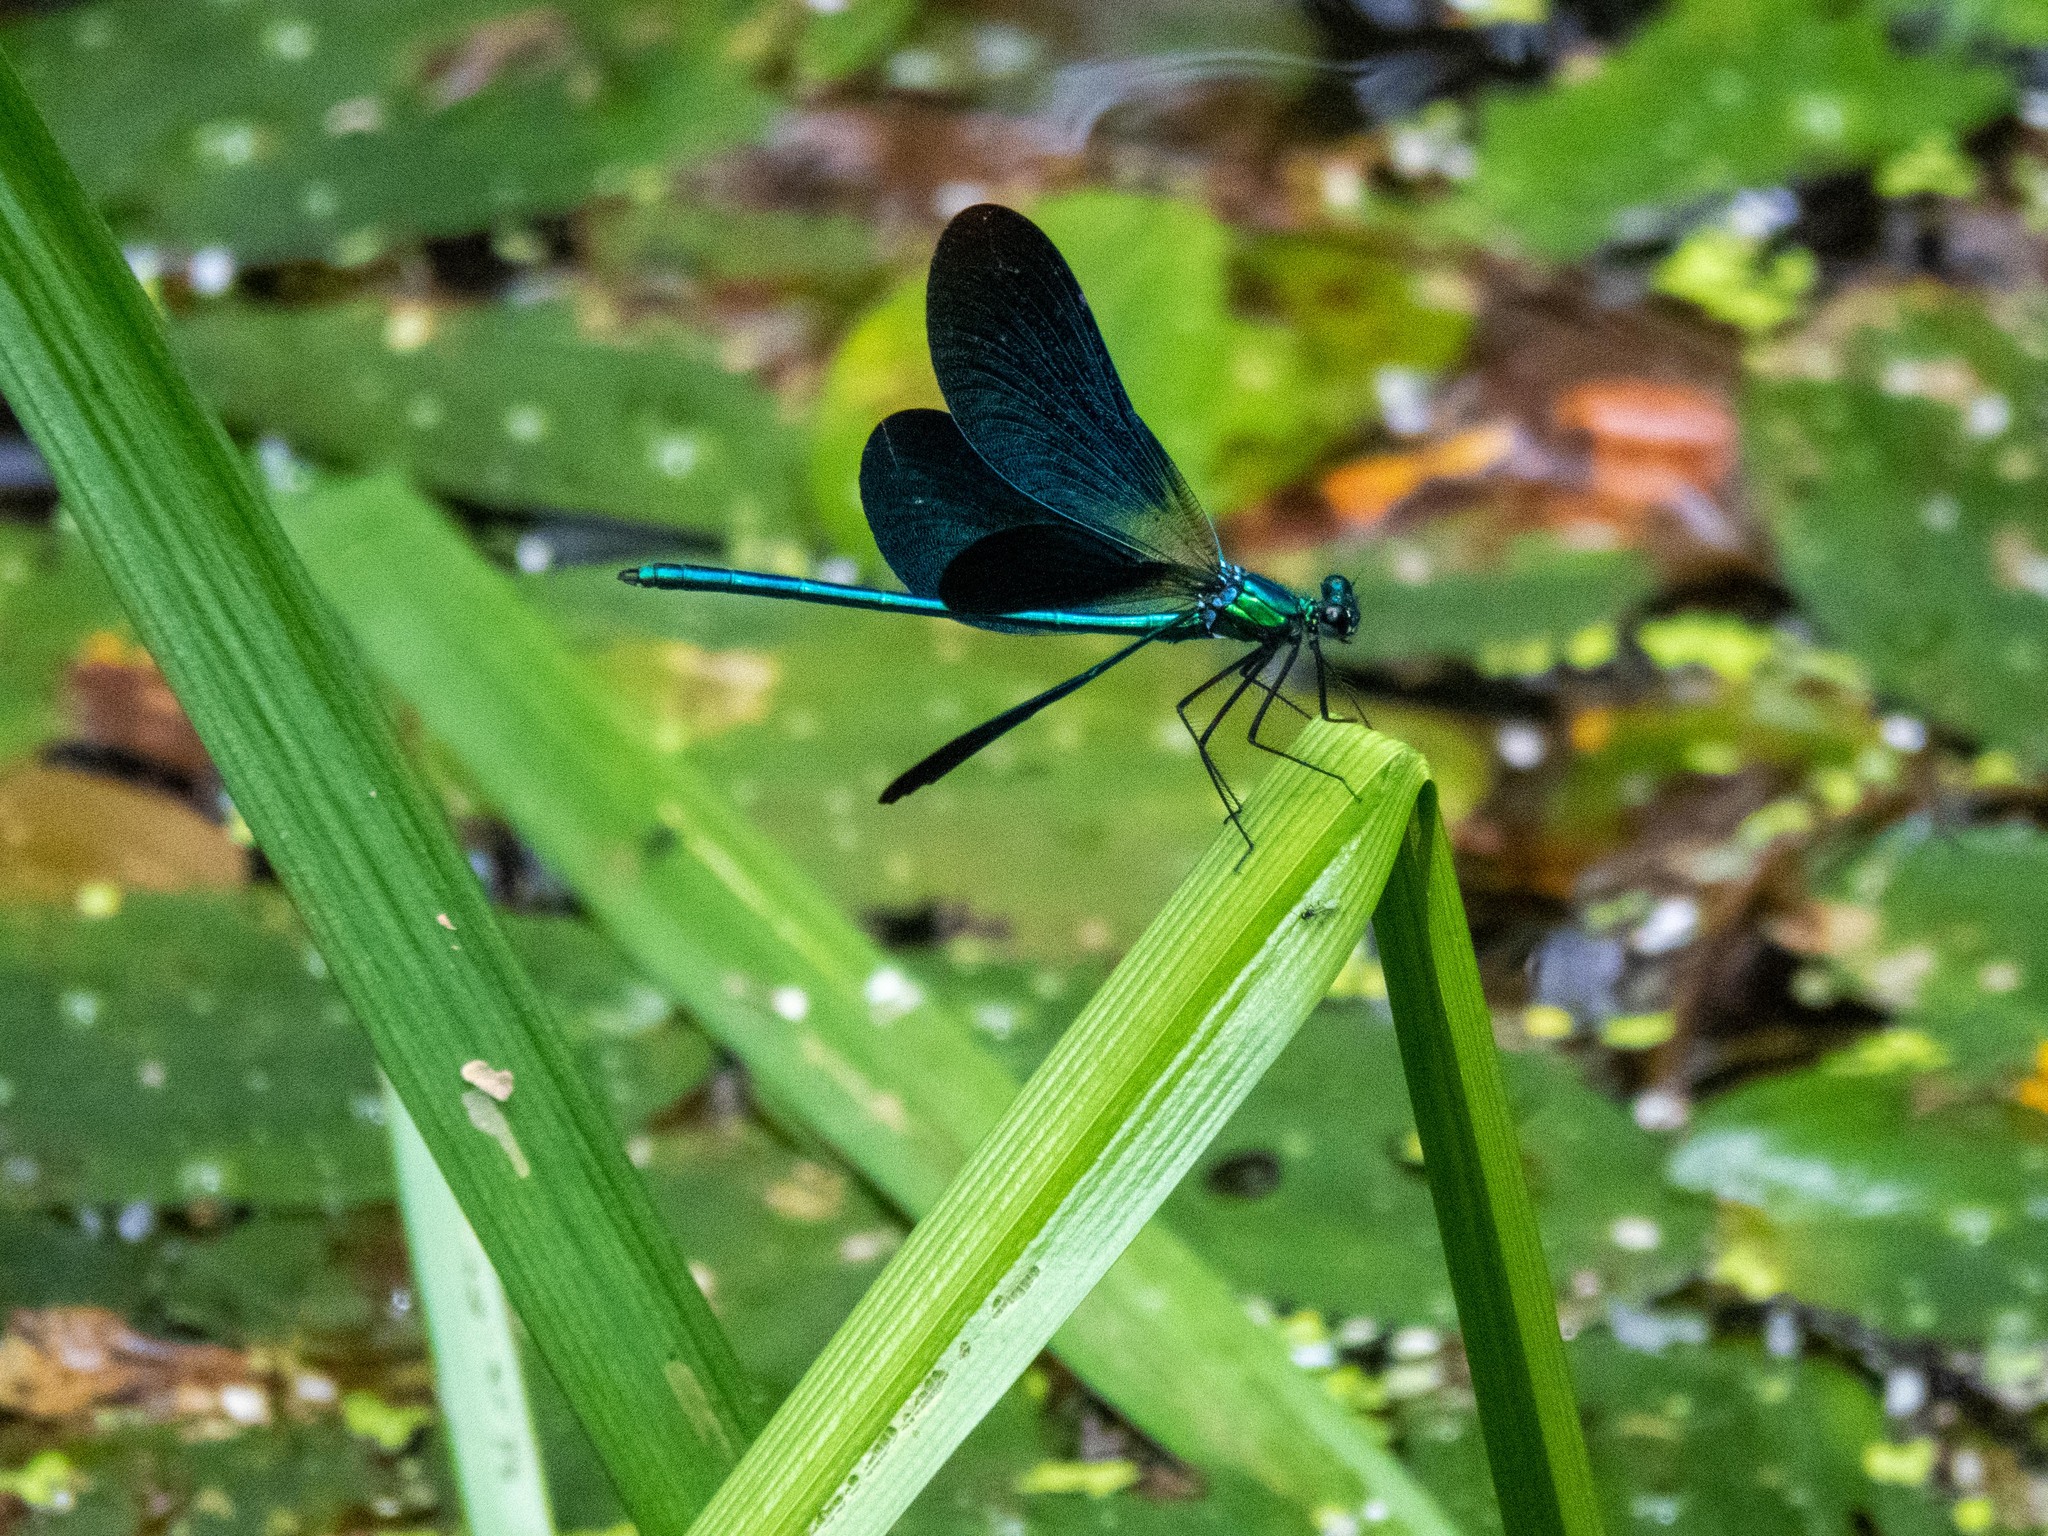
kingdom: Animalia
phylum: Arthropoda
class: Insecta
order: Odonata
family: Calopterygidae
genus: Calopteryx
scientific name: Calopteryx virgo
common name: Beautiful demoiselle
